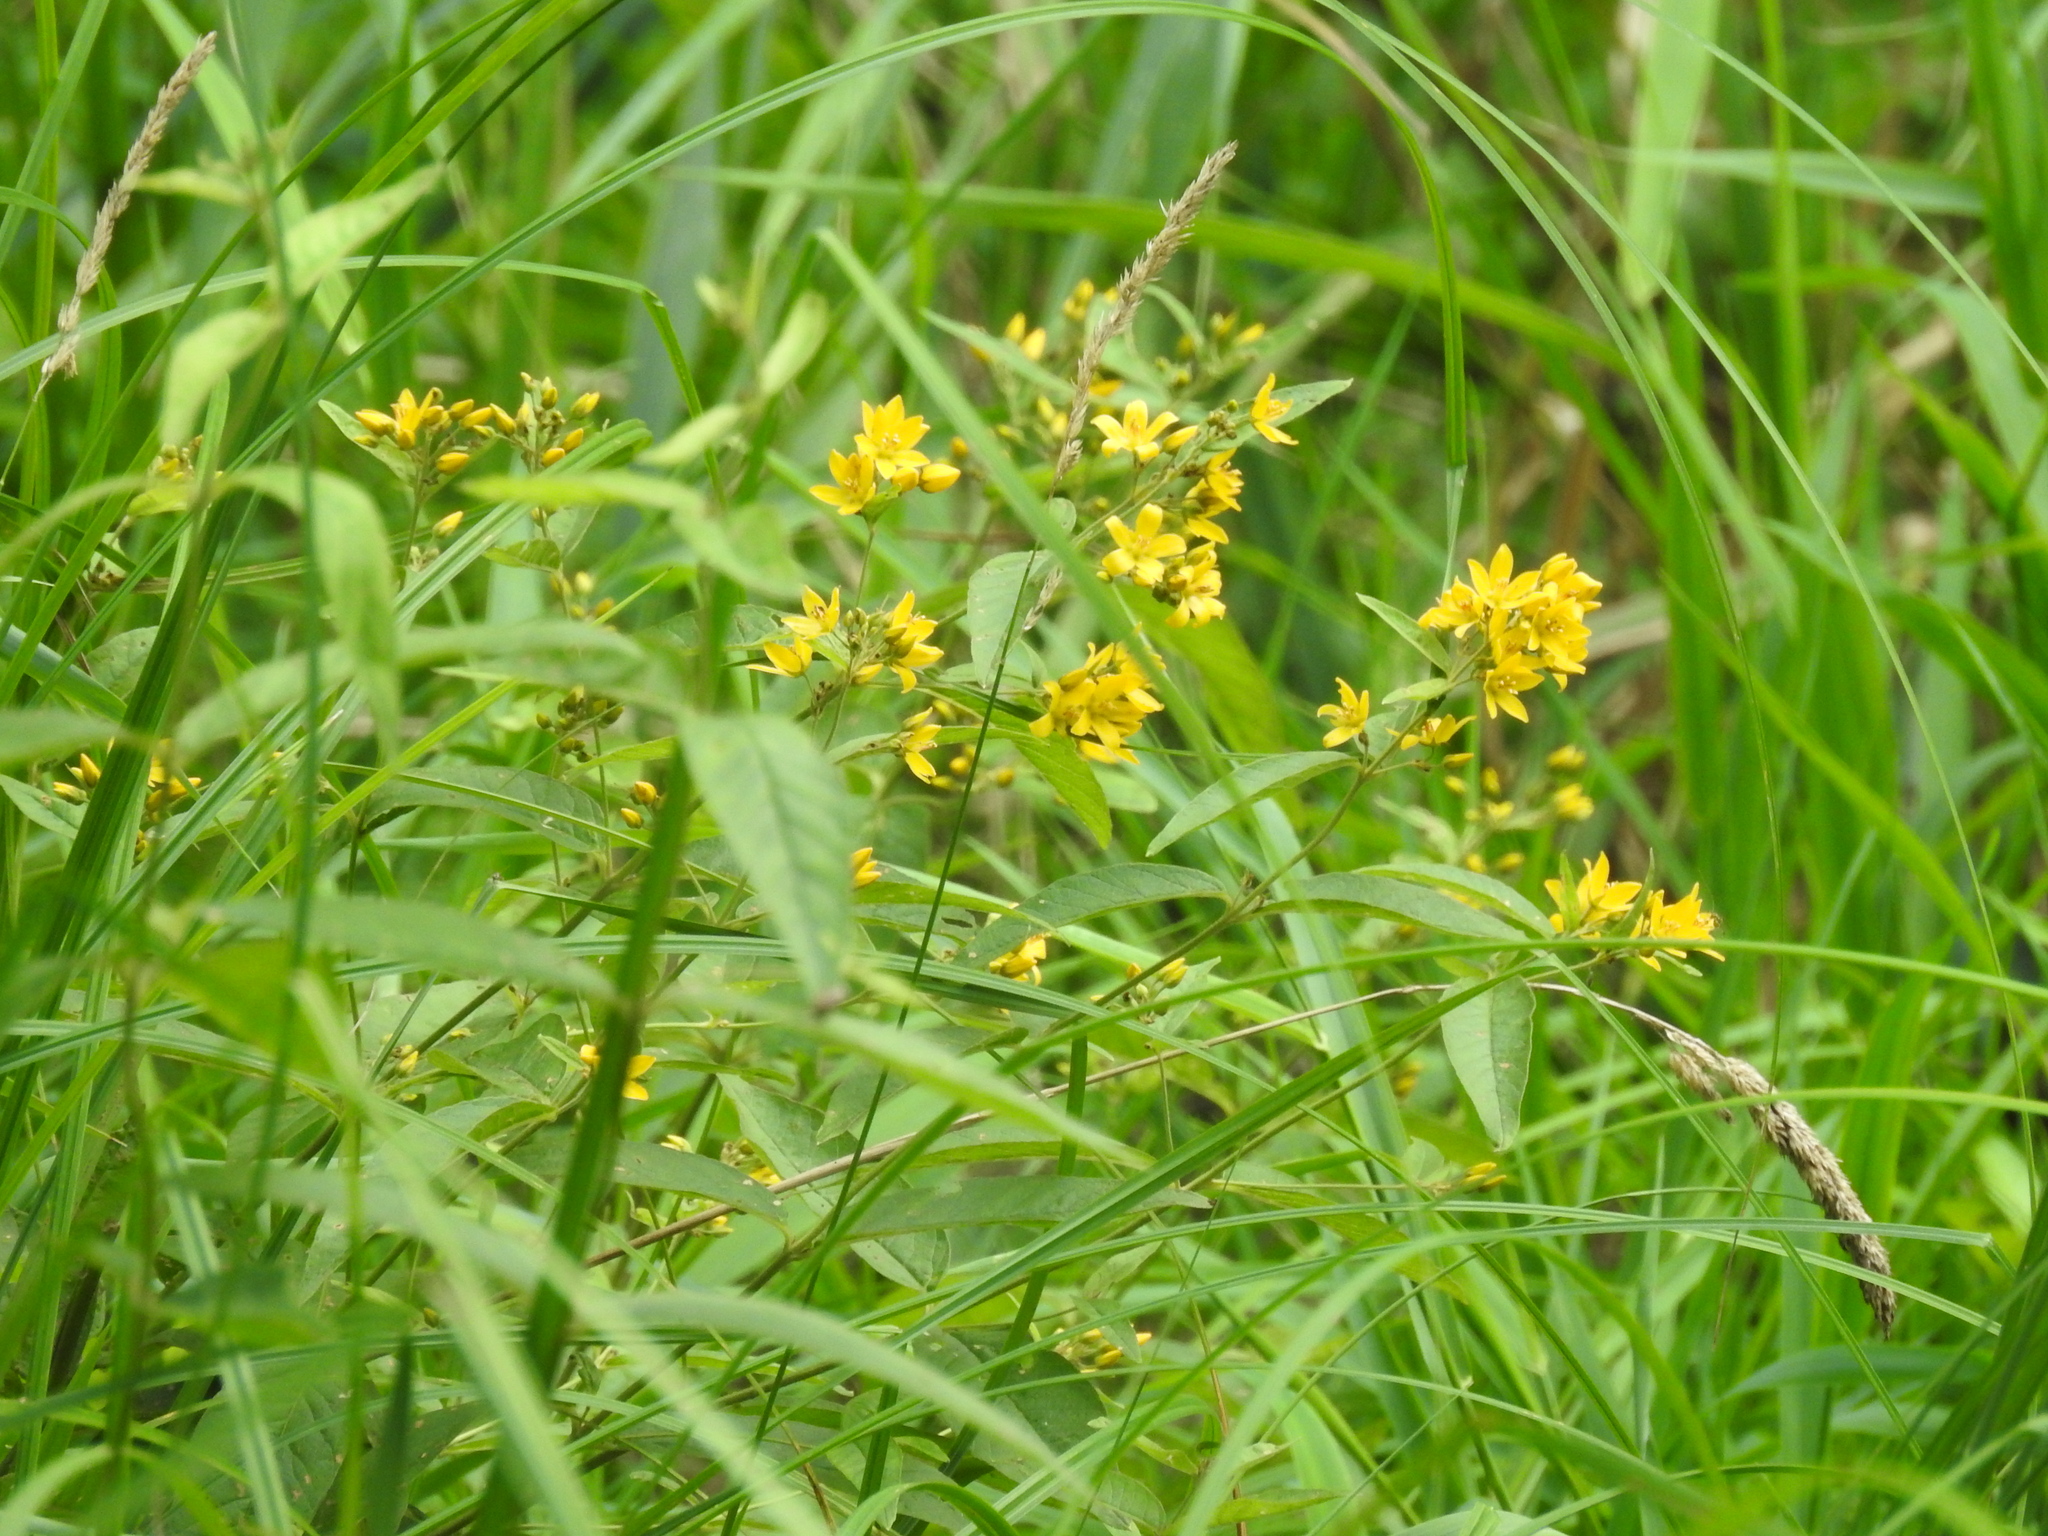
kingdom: Plantae
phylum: Tracheophyta
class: Magnoliopsida
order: Ericales
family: Primulaceae
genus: Lysimachia
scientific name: Lysimachia vulgaris
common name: Yellow loosestrife
